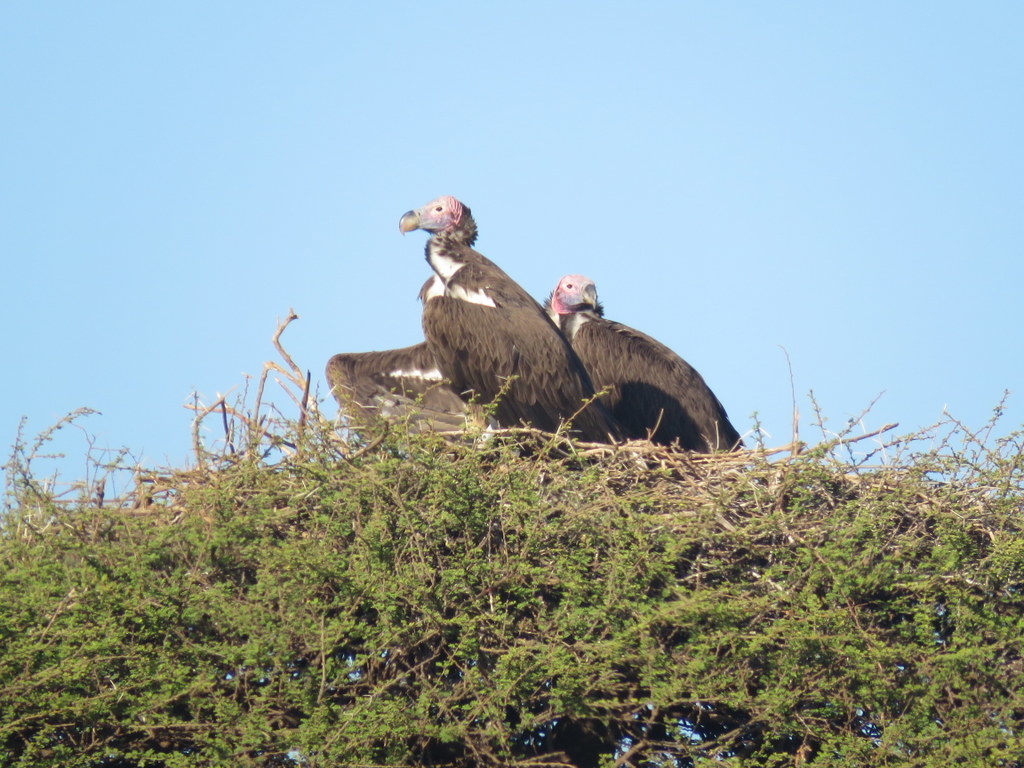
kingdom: Animalia
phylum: Chordata
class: Aves
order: Accipitriformes
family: Accipitridae
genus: Torgos
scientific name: Torgos tracheliotos
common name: Lappet-faced vulture
